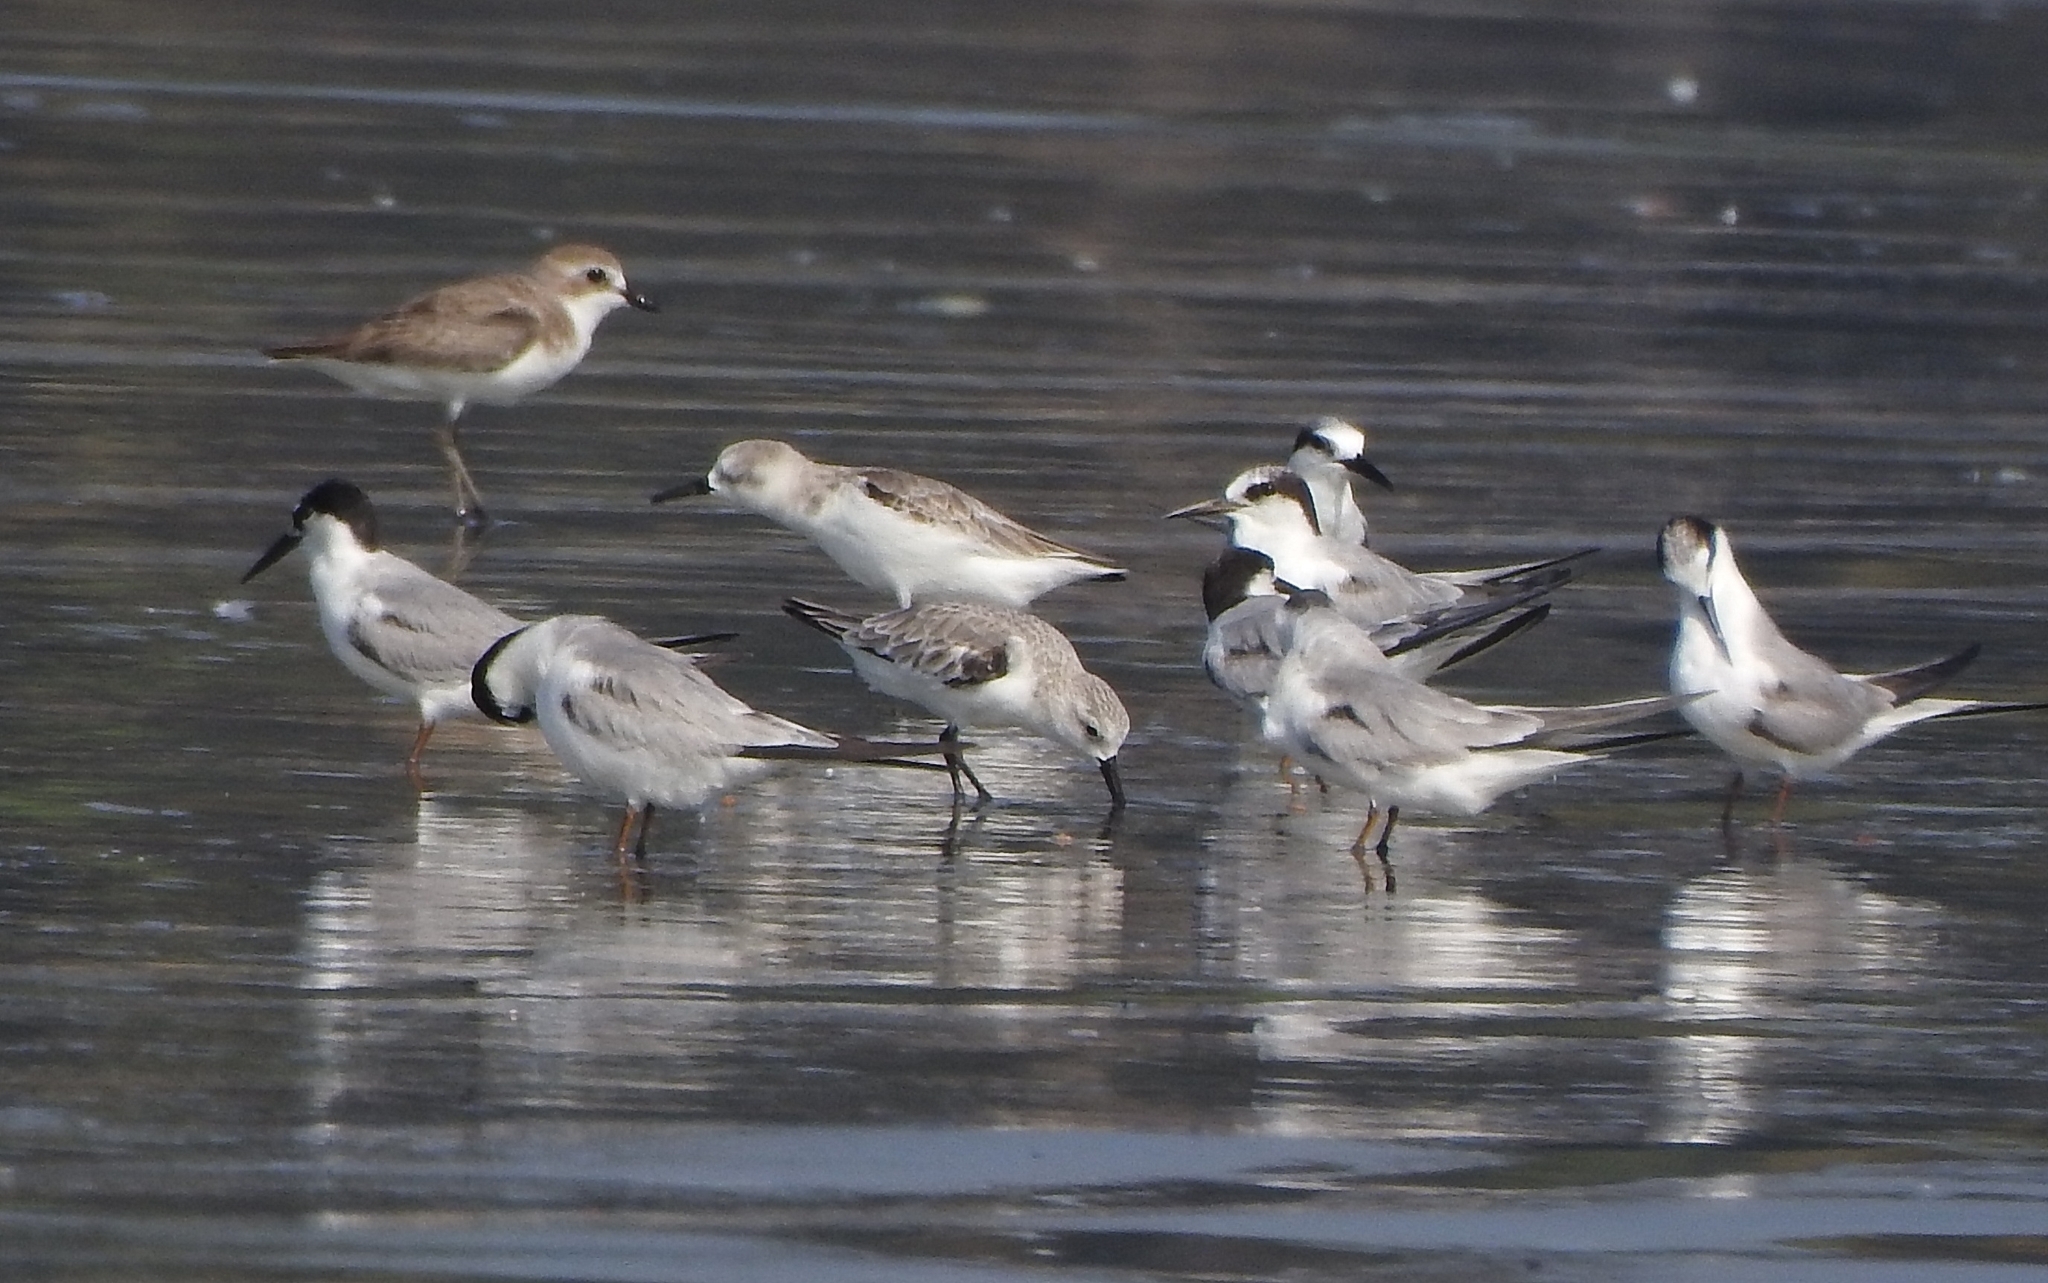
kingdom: Animalia
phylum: Chordata
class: Aves
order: Charadriiformes
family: Scolopacidae
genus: Calidris
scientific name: Calidris alba
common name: Sanderling
